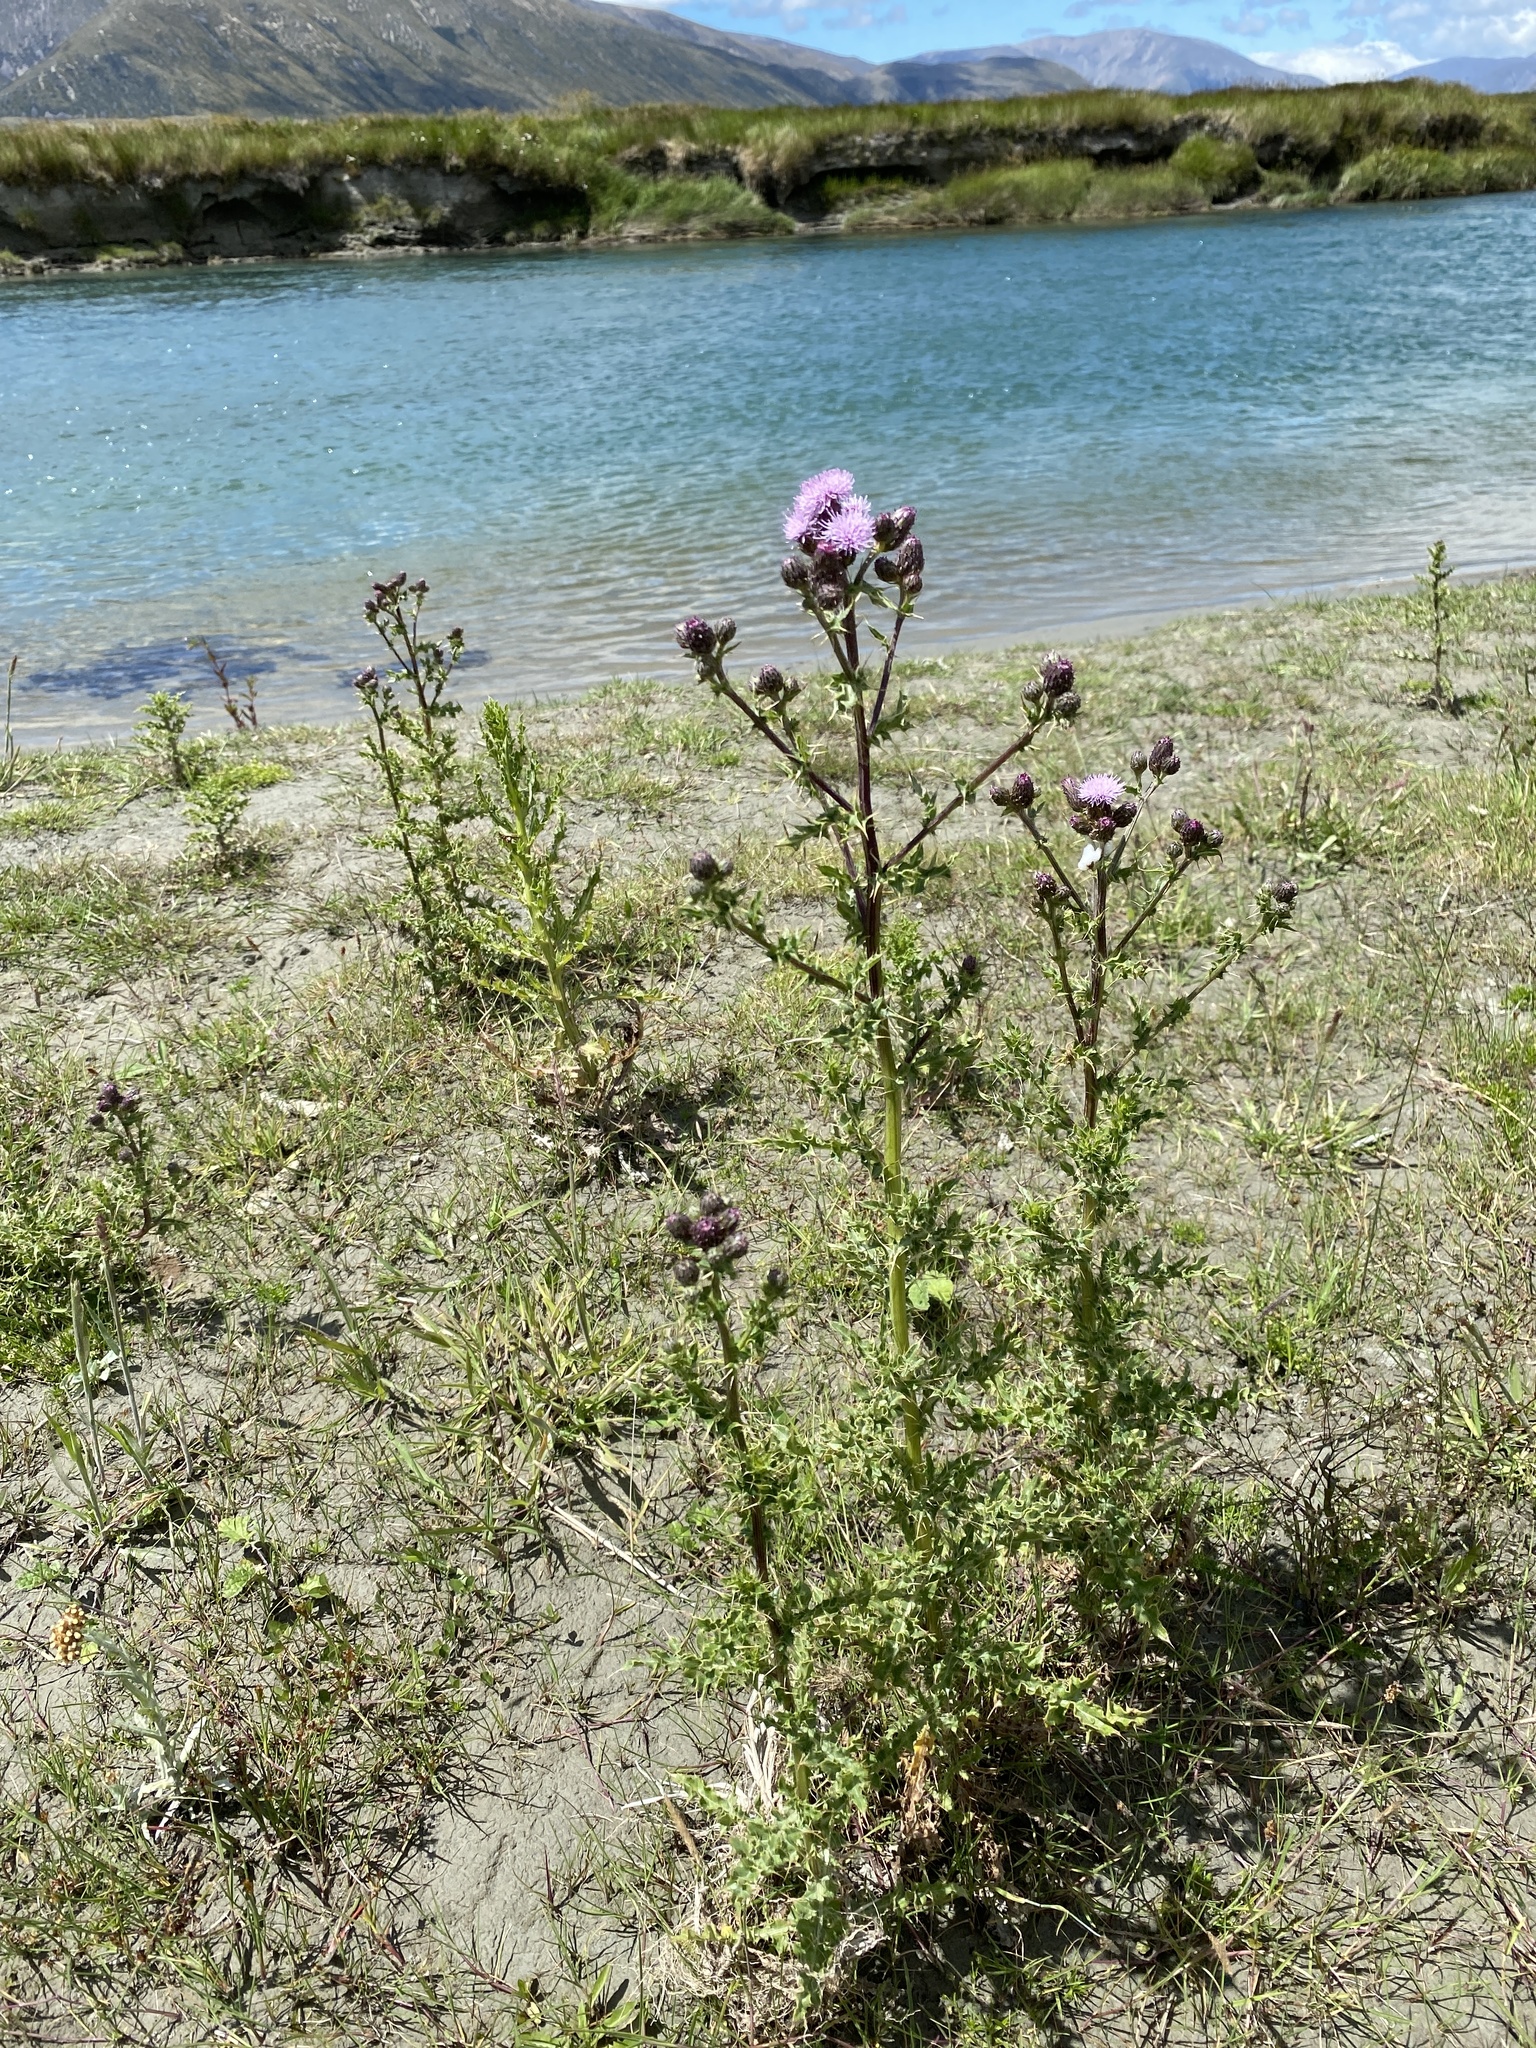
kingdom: Plantae
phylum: Tracheophyta
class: Magnoliopsida
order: Asterales
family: Asteraceae
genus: Cirsium
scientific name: Cirsium arvense
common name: Creeping thistle
